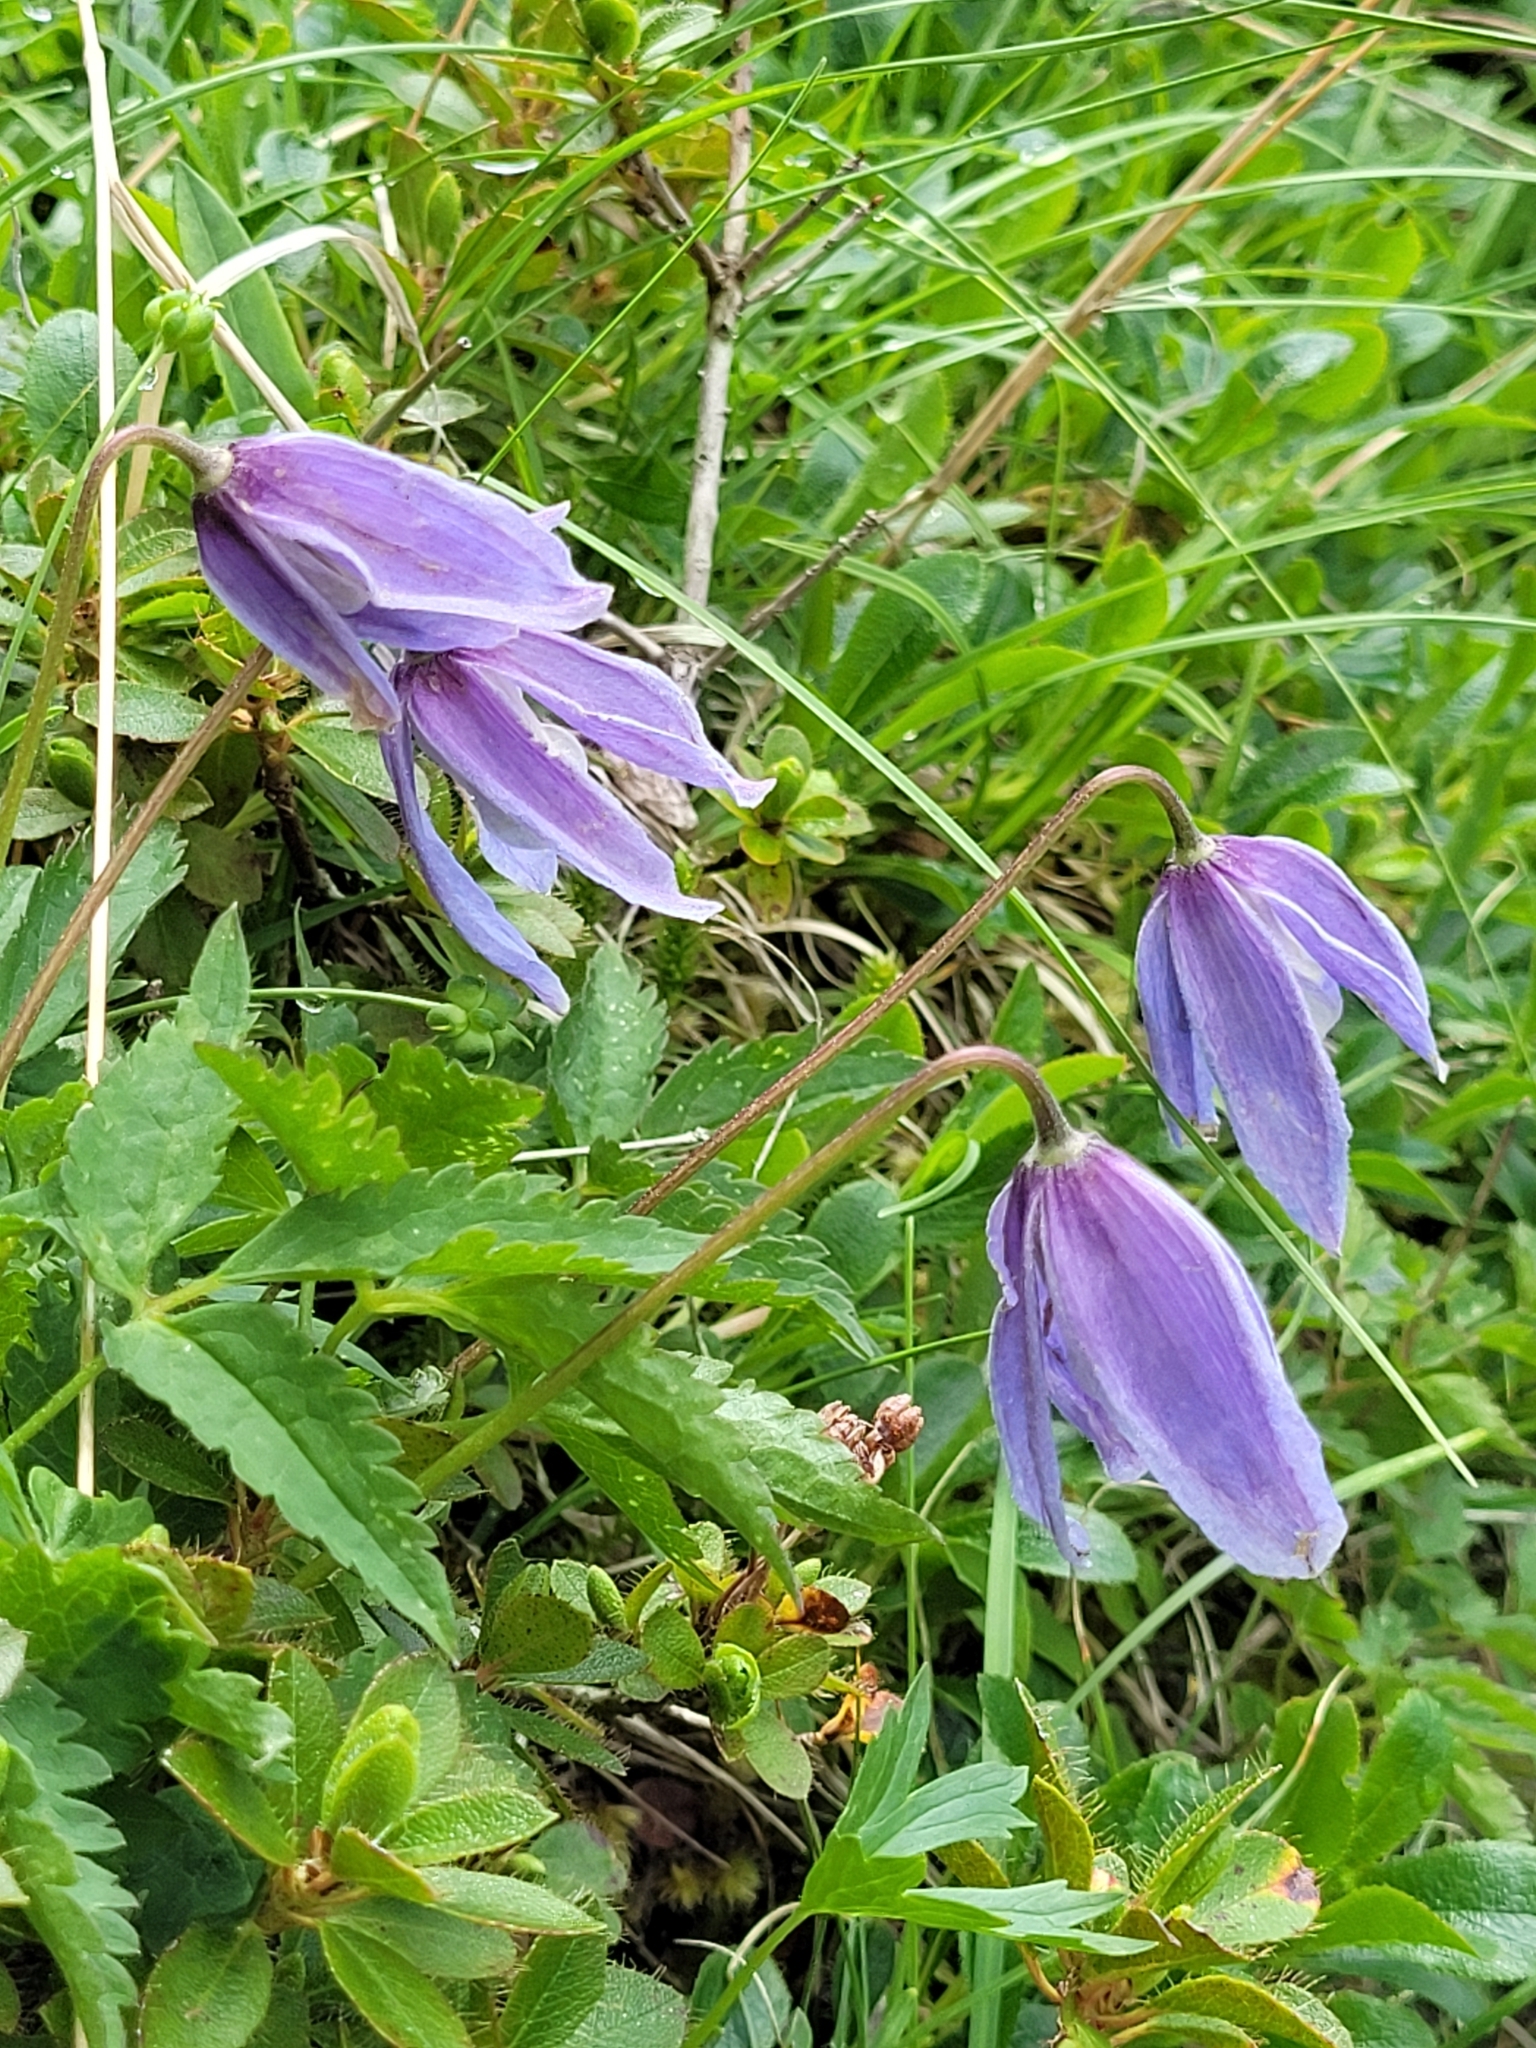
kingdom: Plantae
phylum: Tracheophyta
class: Magnoliopsida
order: Ranunculales
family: Ranunculaceae
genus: Clematis
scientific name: Clematis alpina
